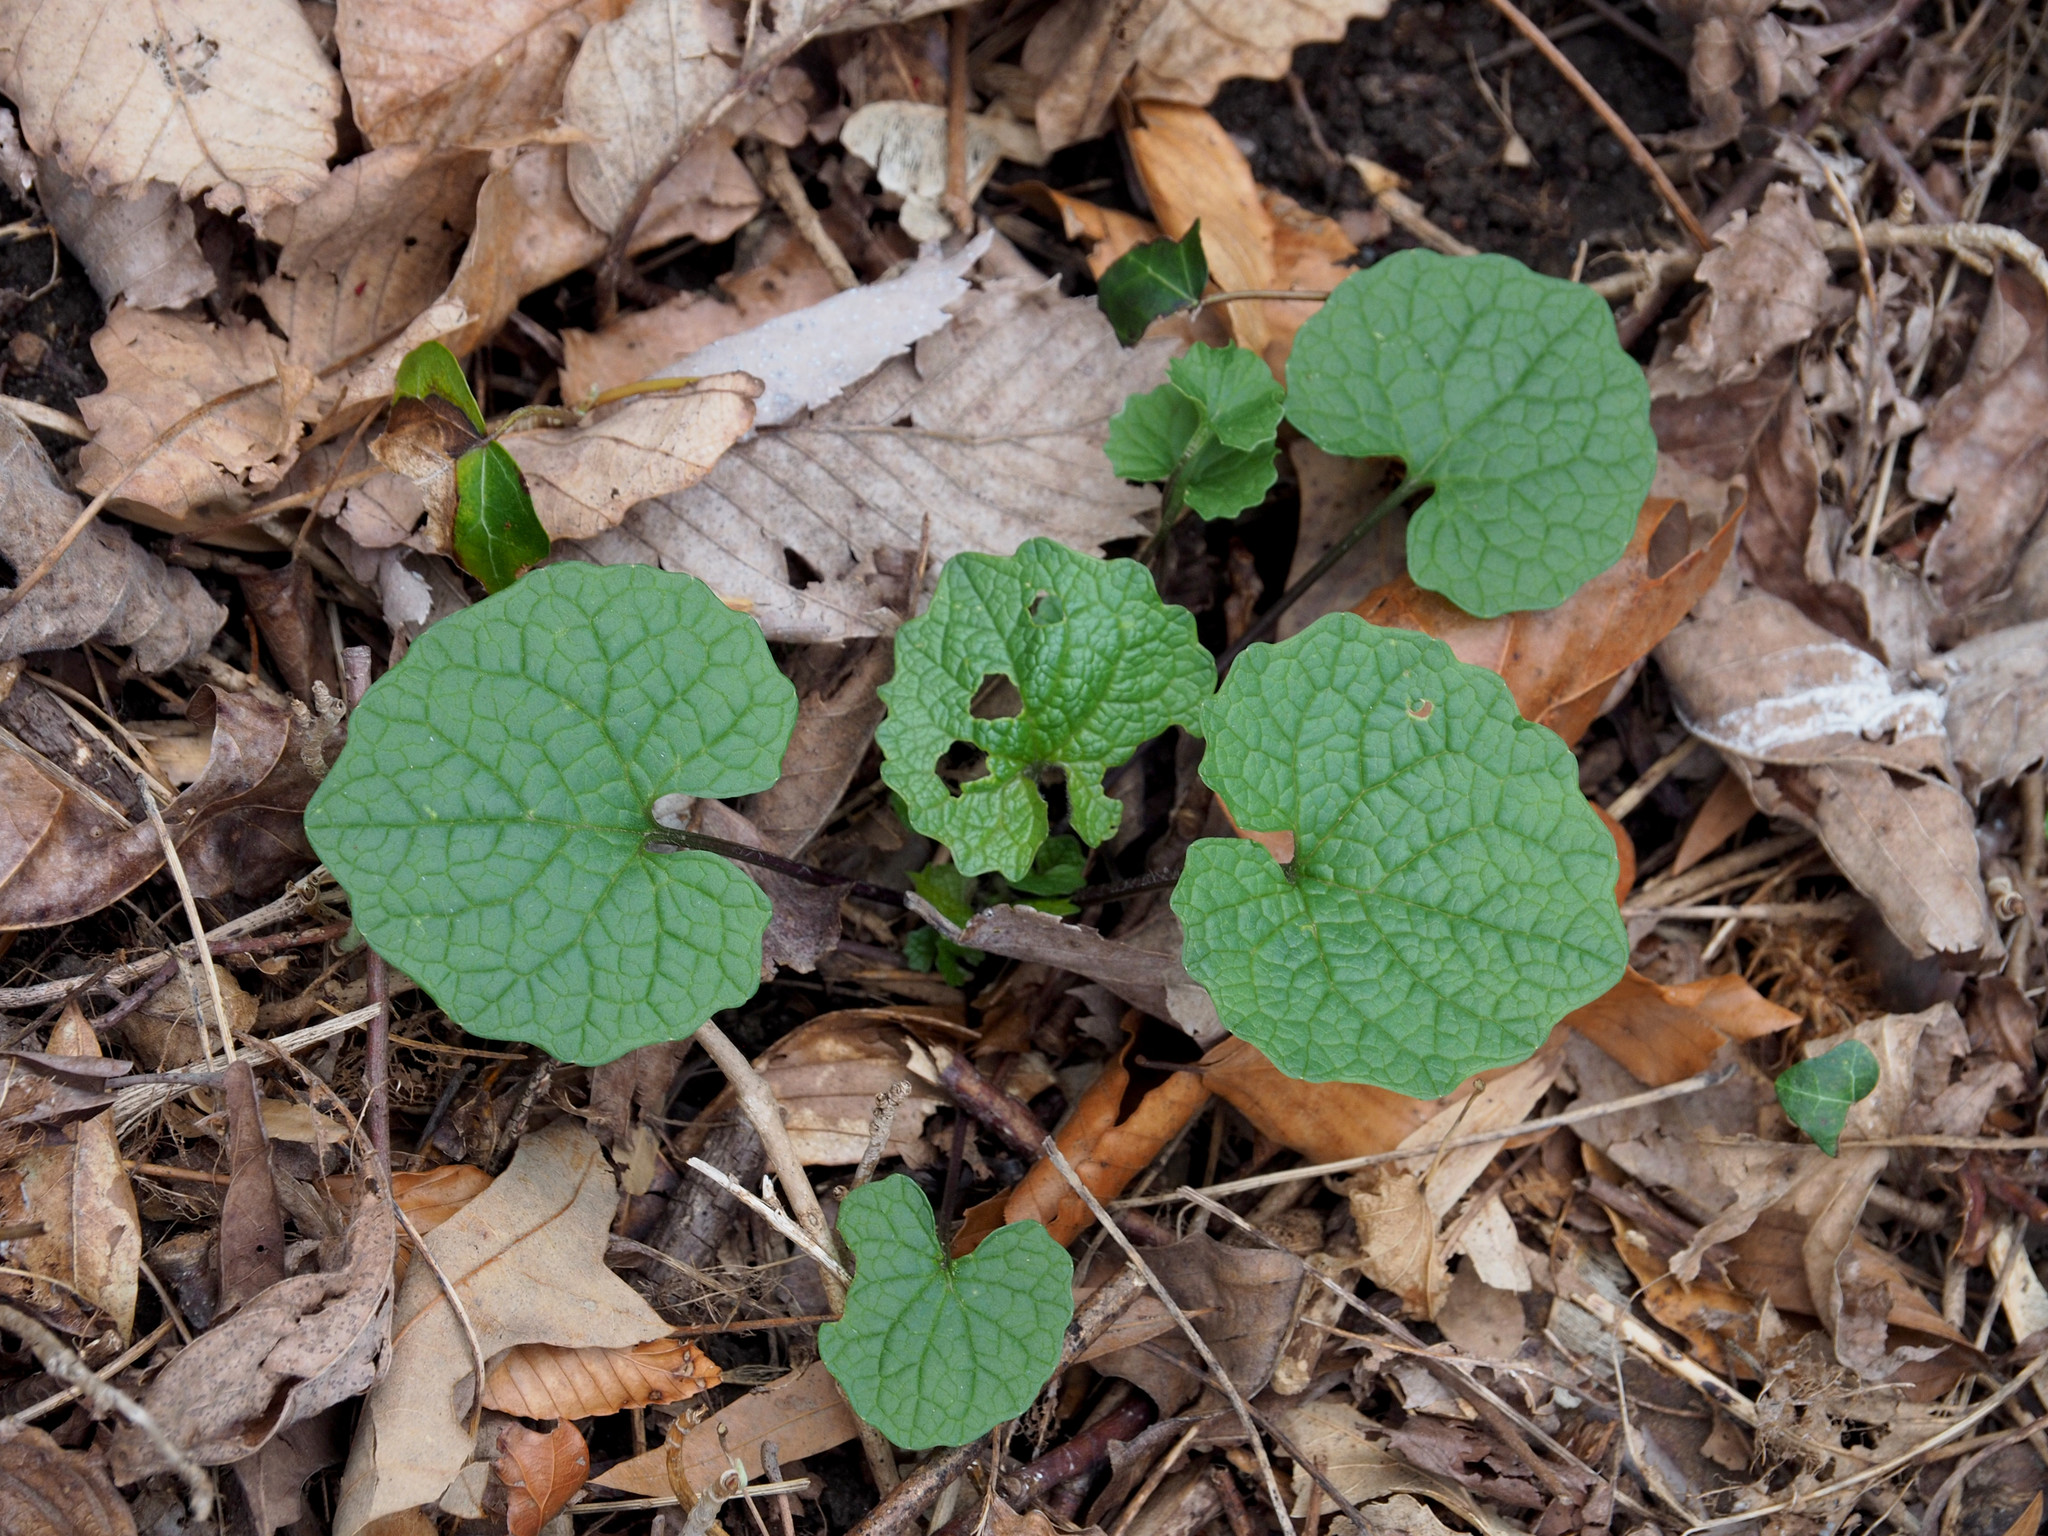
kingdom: Plantae
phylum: Tracheophyta
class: Magnoliopsida
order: Brassicales
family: Brassicaceae
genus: Alliaria
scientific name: Alliaria petiolata
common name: Garlic mustard
